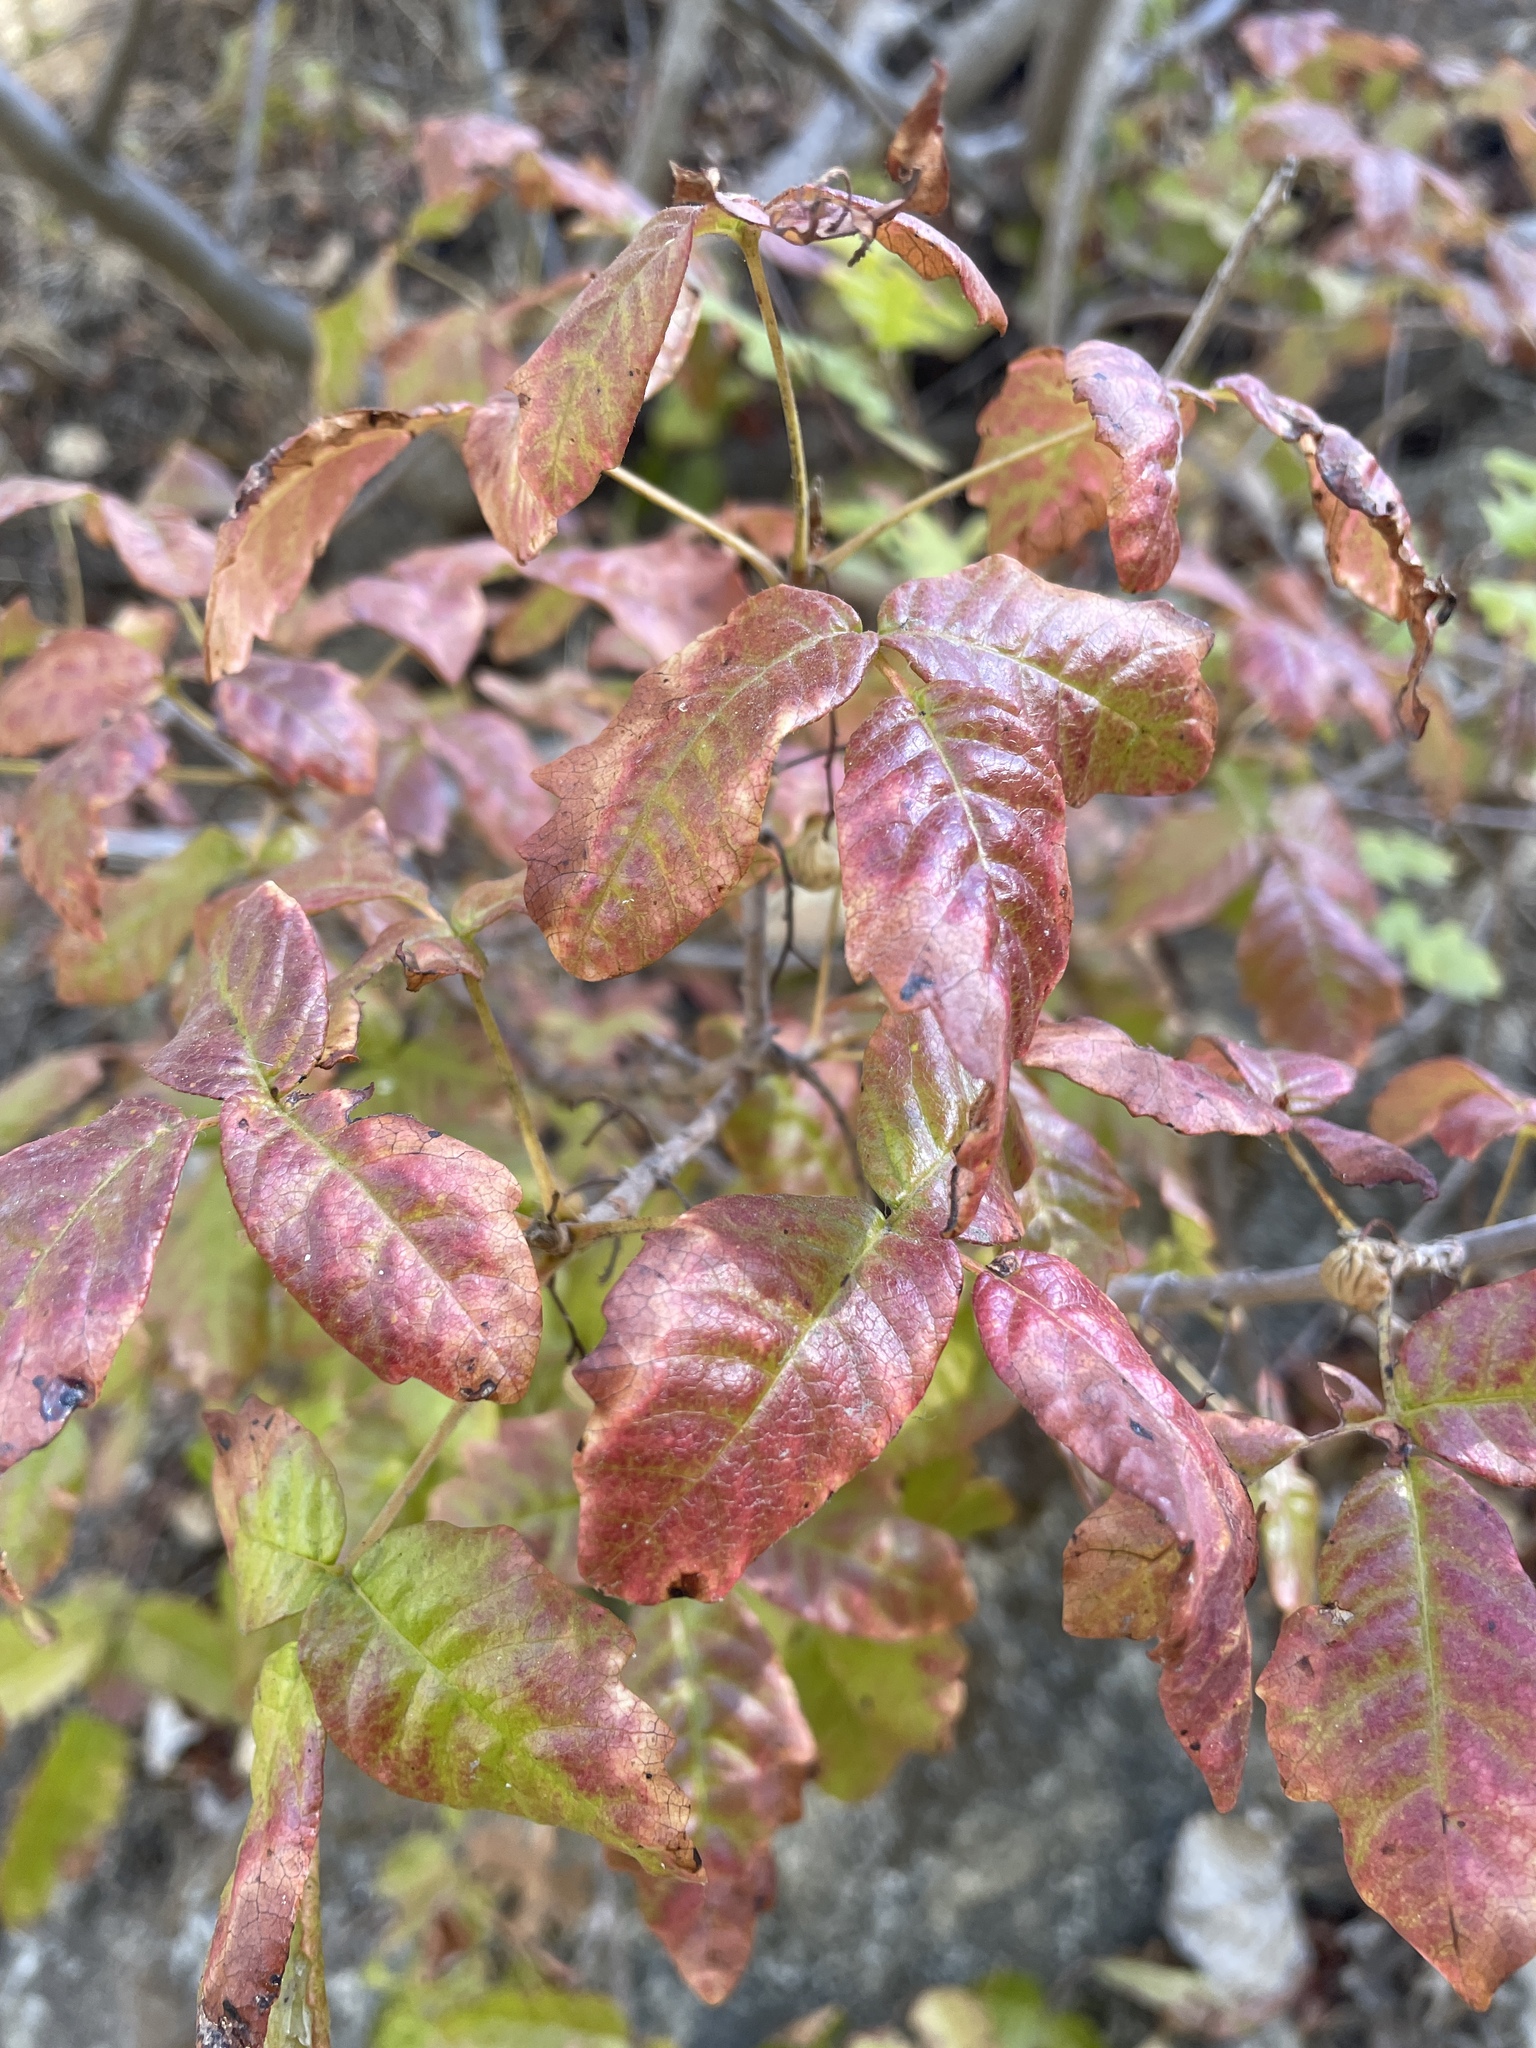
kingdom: Plantae
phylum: Tracheophyta
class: Magnoliopsida
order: Sapindales
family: Anacardiaceae
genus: Toxicodendron
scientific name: Toxicodendron diversilobum
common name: Pacific poison-oak
